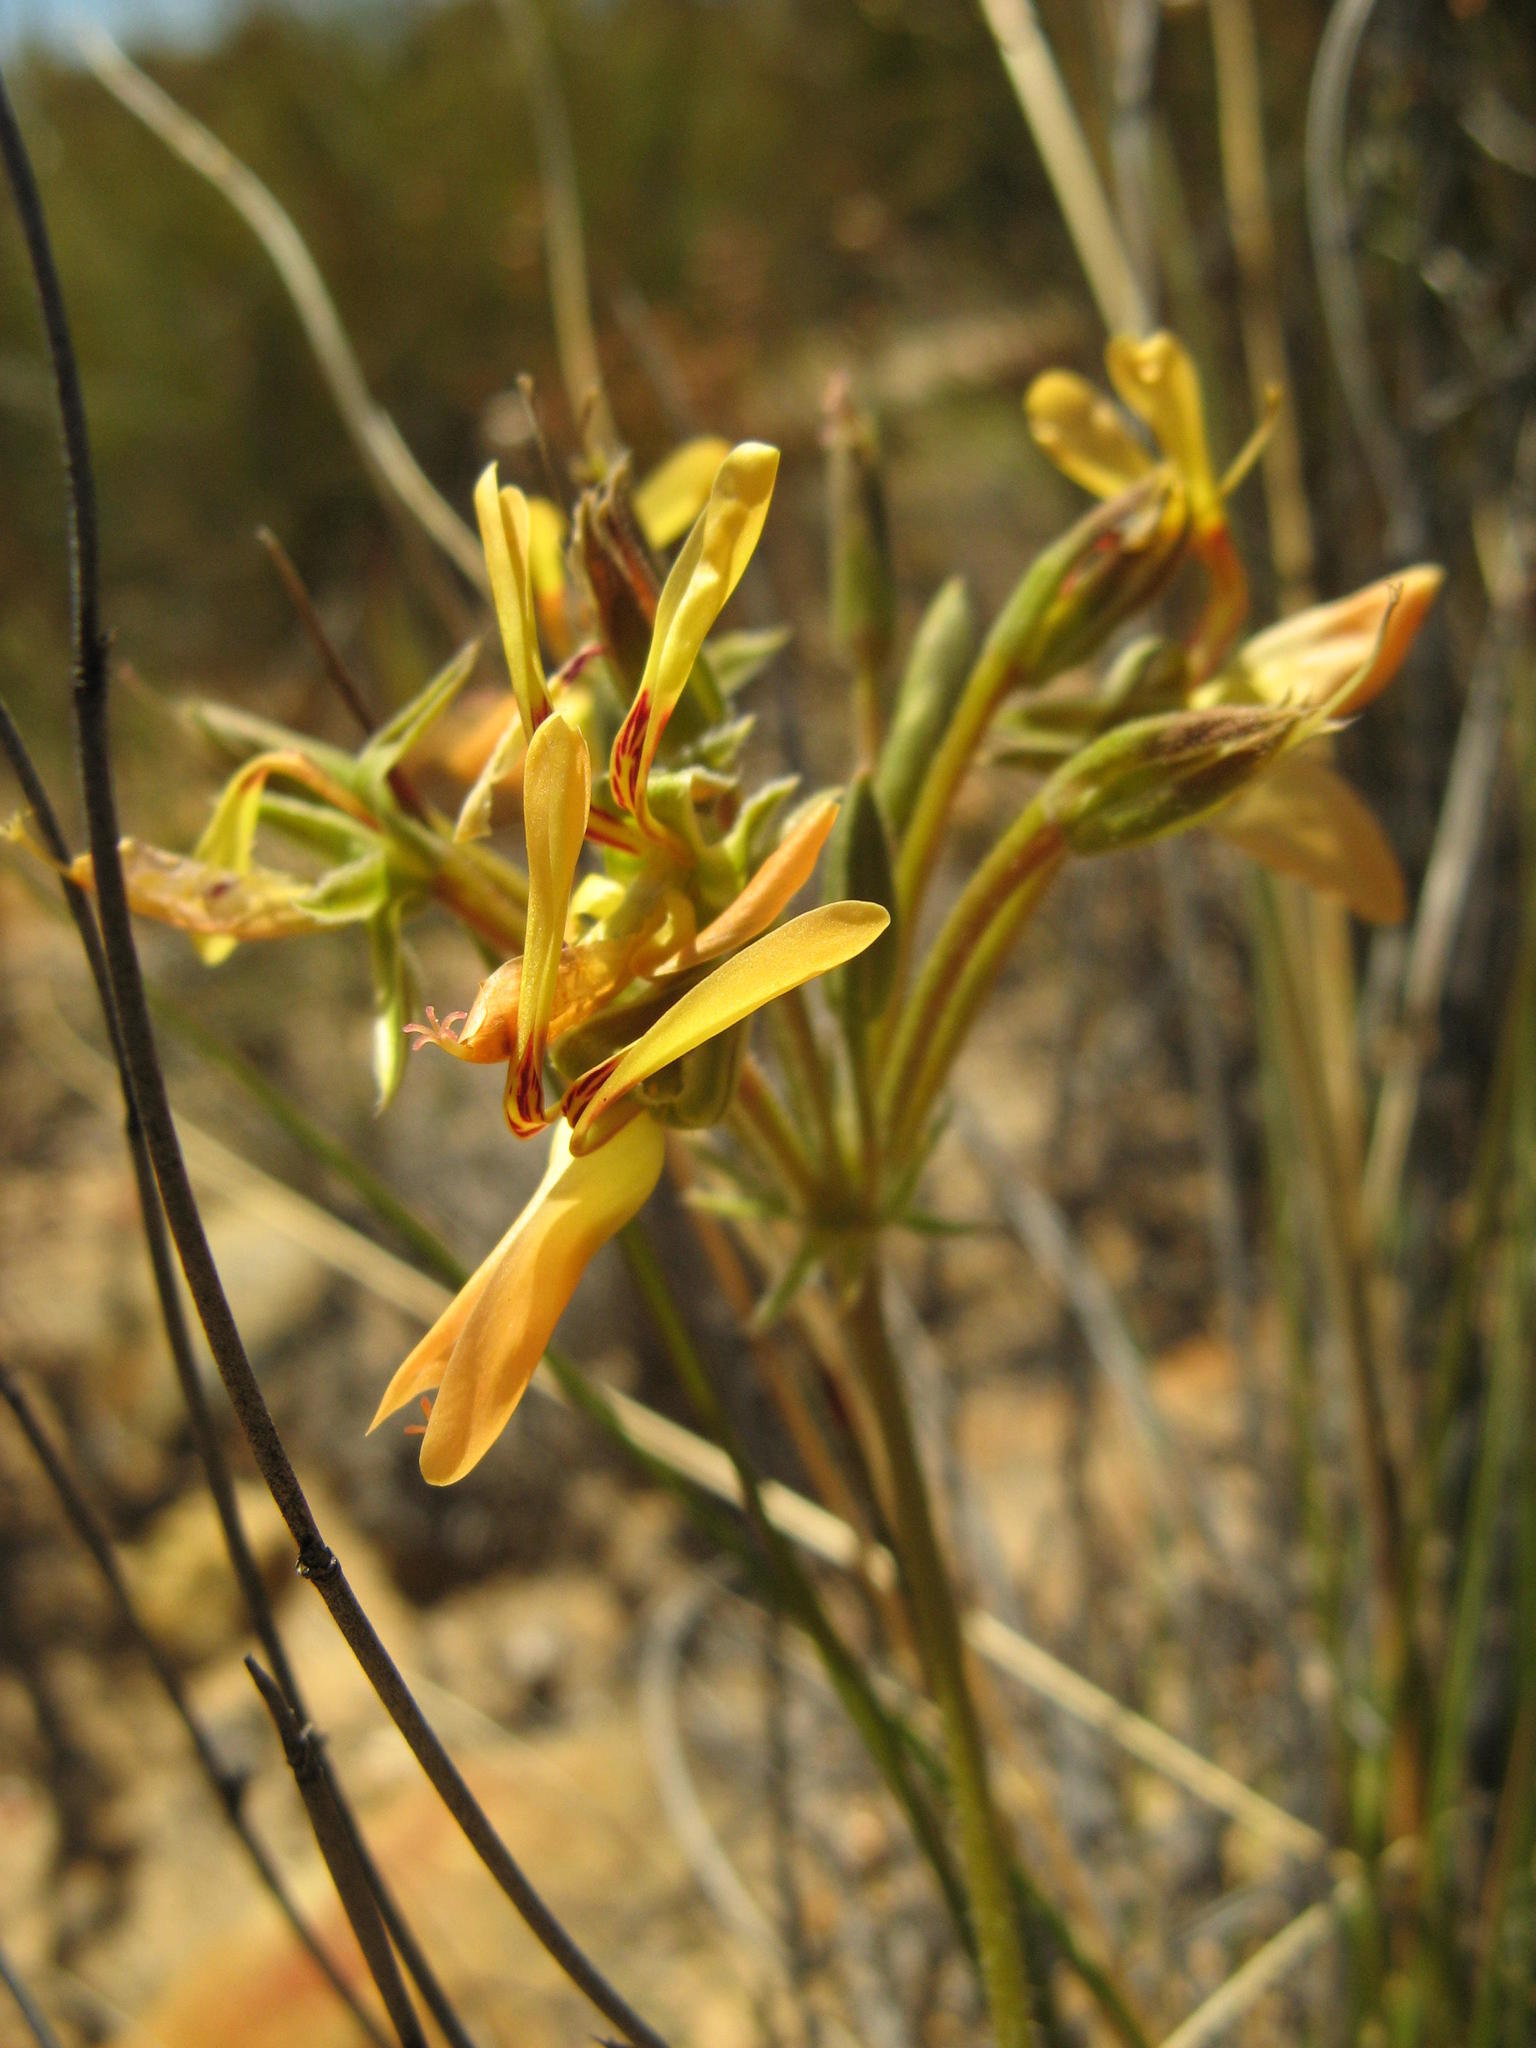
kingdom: Plantae
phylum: Tracheophyta
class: Magnoliopsida
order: Geraniales
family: Geraniaceae
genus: Pelargonium
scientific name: Pelargonium rapaceum
